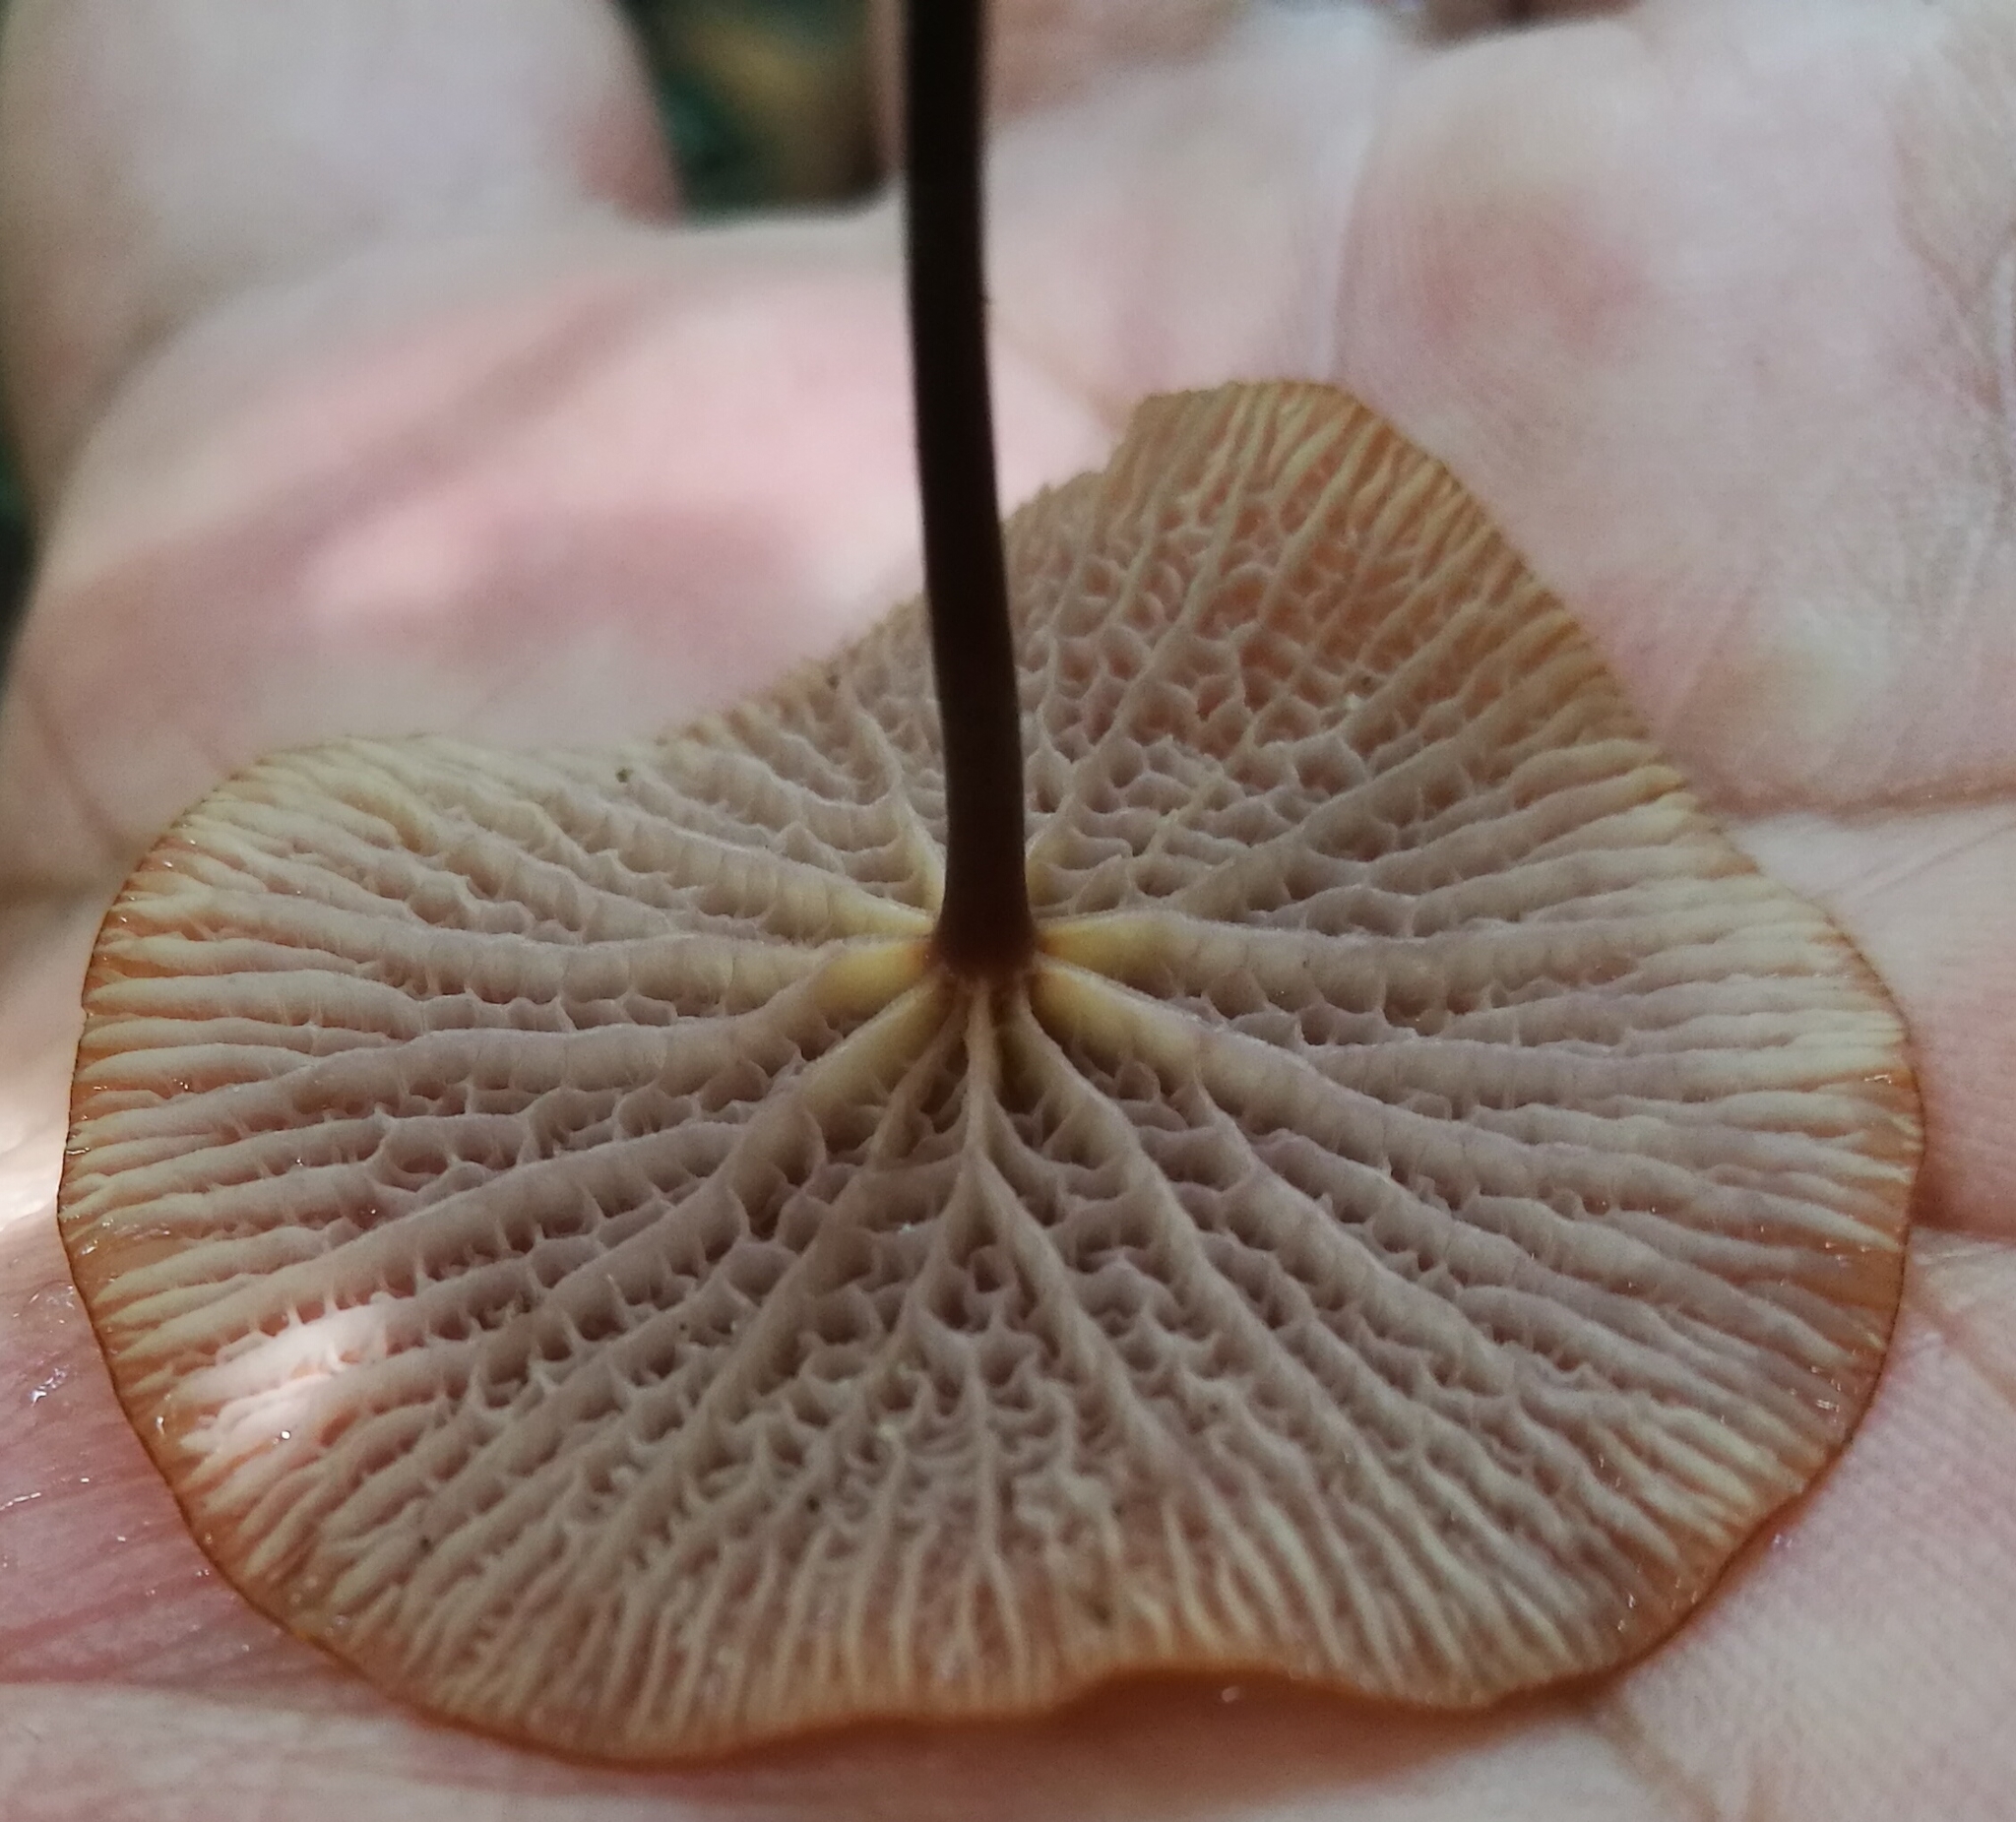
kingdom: Fungi
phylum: Basidiomycota
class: Agaricomycetes
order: Agaricales
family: Marasmiaceae
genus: Marasmius
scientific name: Marasmius cladophyllus
